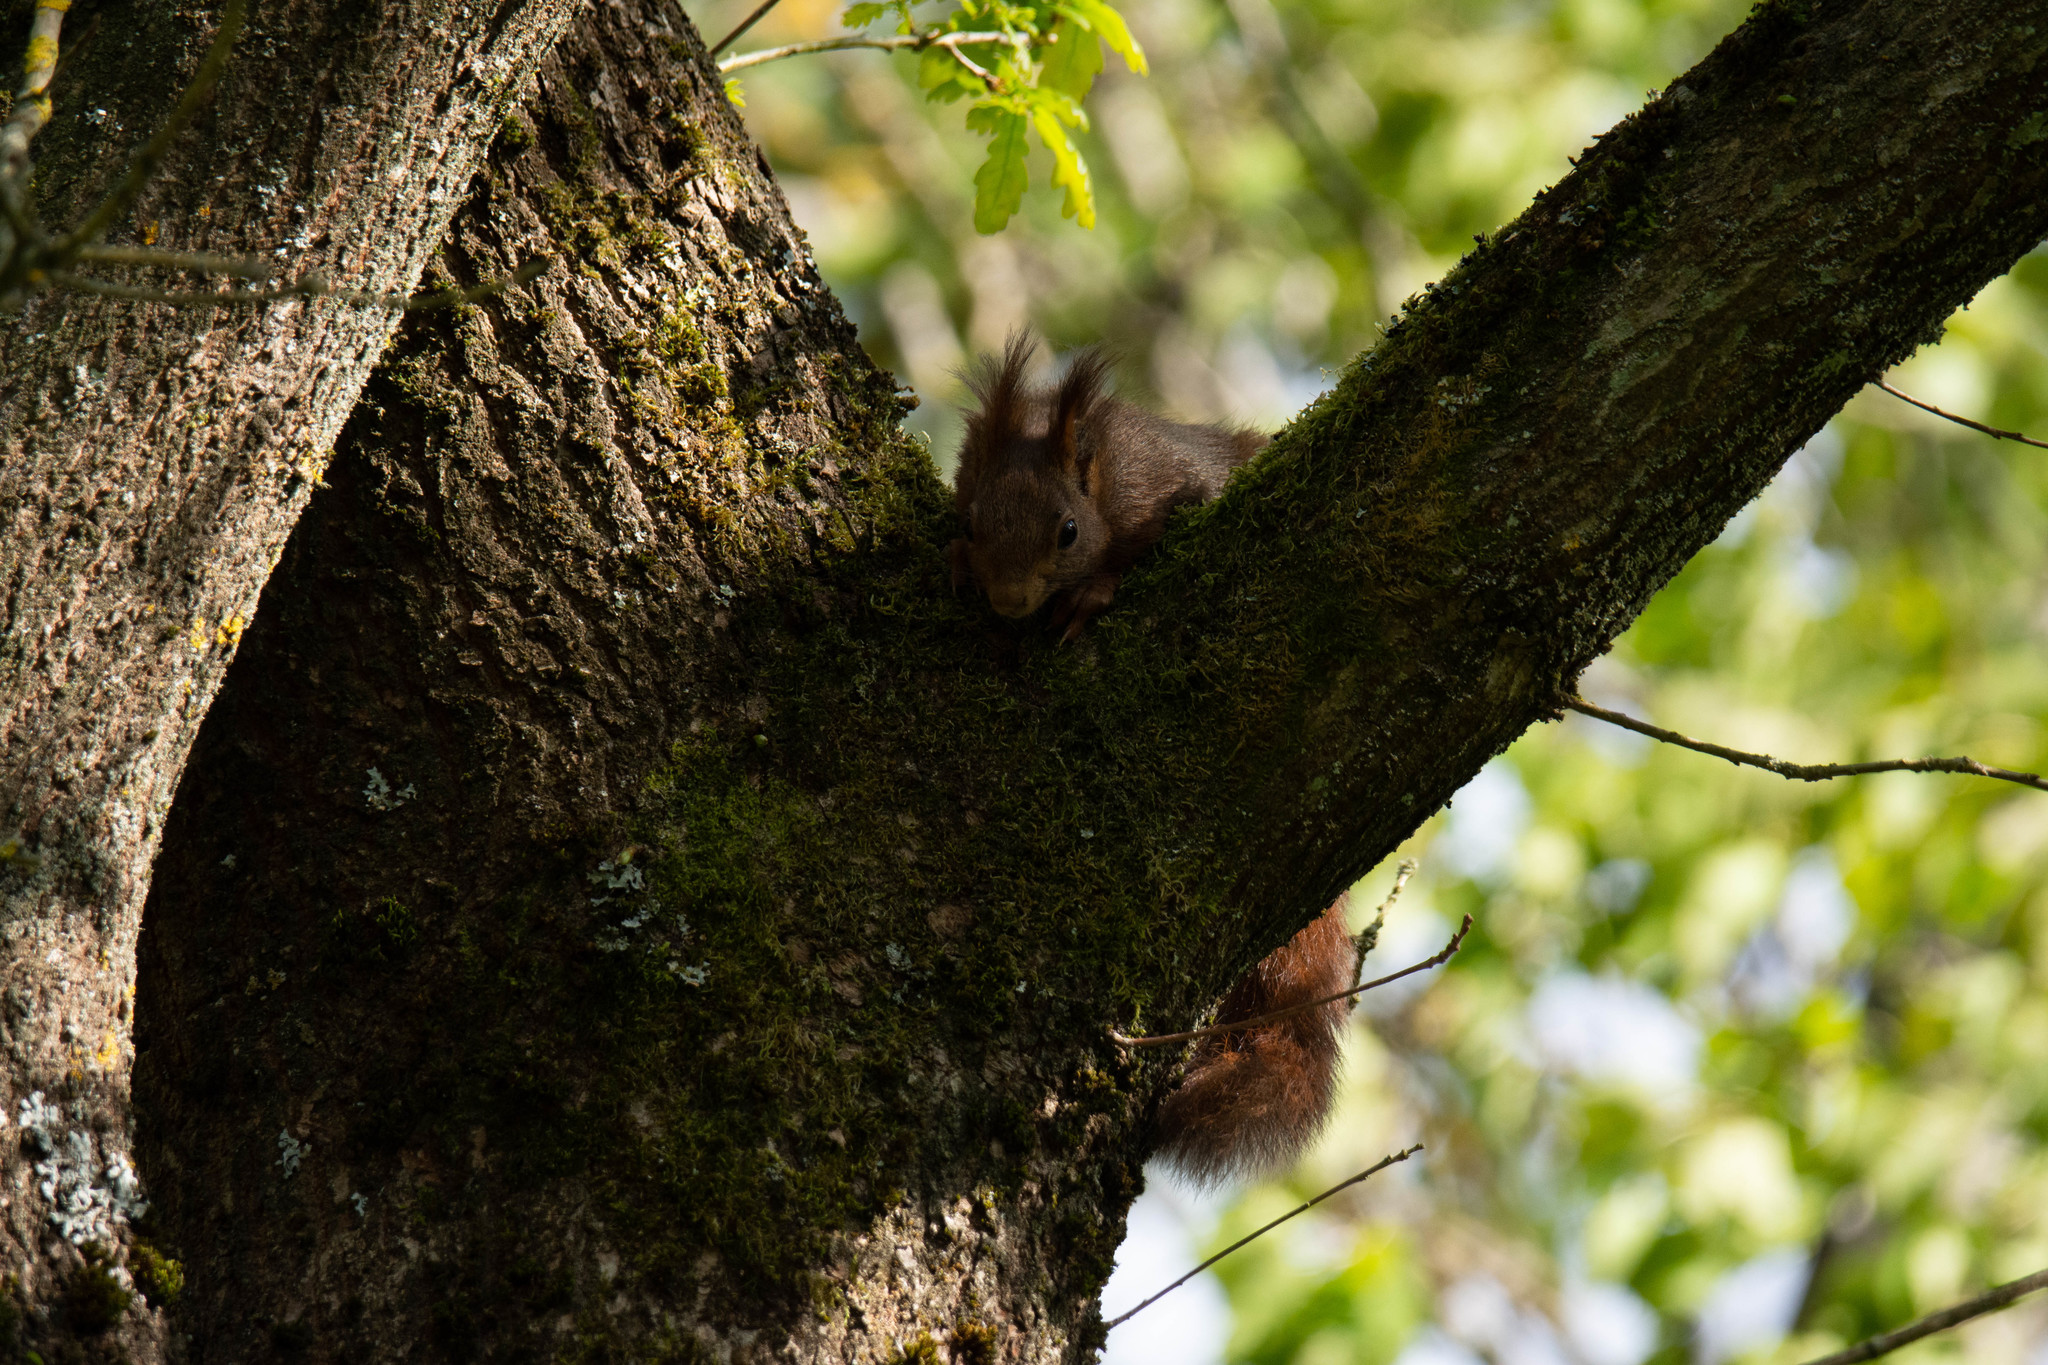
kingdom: Animalia
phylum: Chordata
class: Mammalia
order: Rodentia
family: Sciuridae
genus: Sciurus
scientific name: Sciurus vulgaris
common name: Eurasian red squirrel
